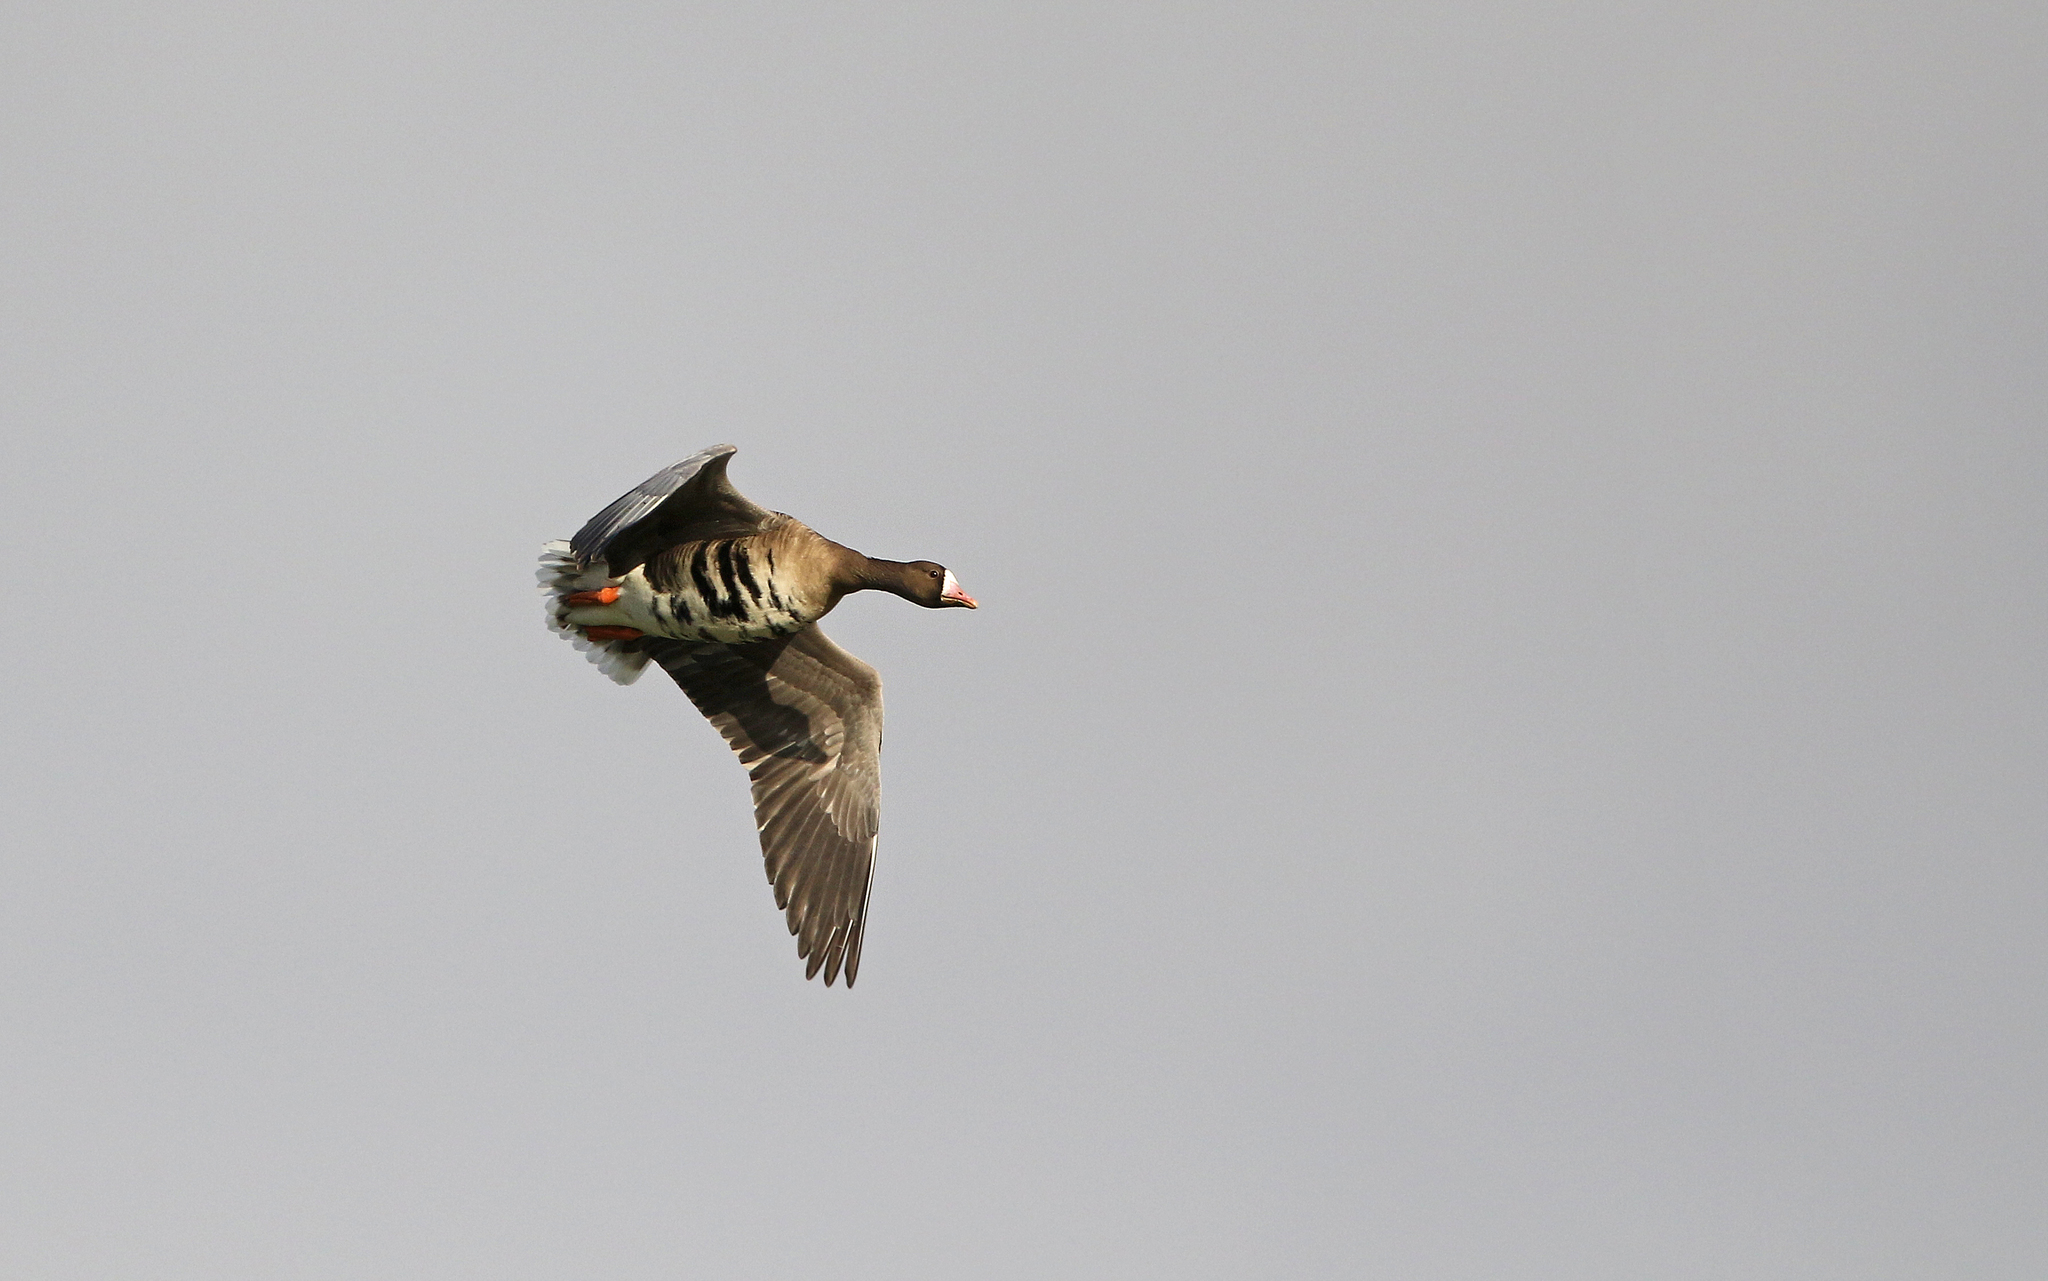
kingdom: Animalia
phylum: Chordata
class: Aves
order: Anseriformes
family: Anatidae
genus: Anser
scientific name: Anser albifrons
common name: Greater white-fronted goose
